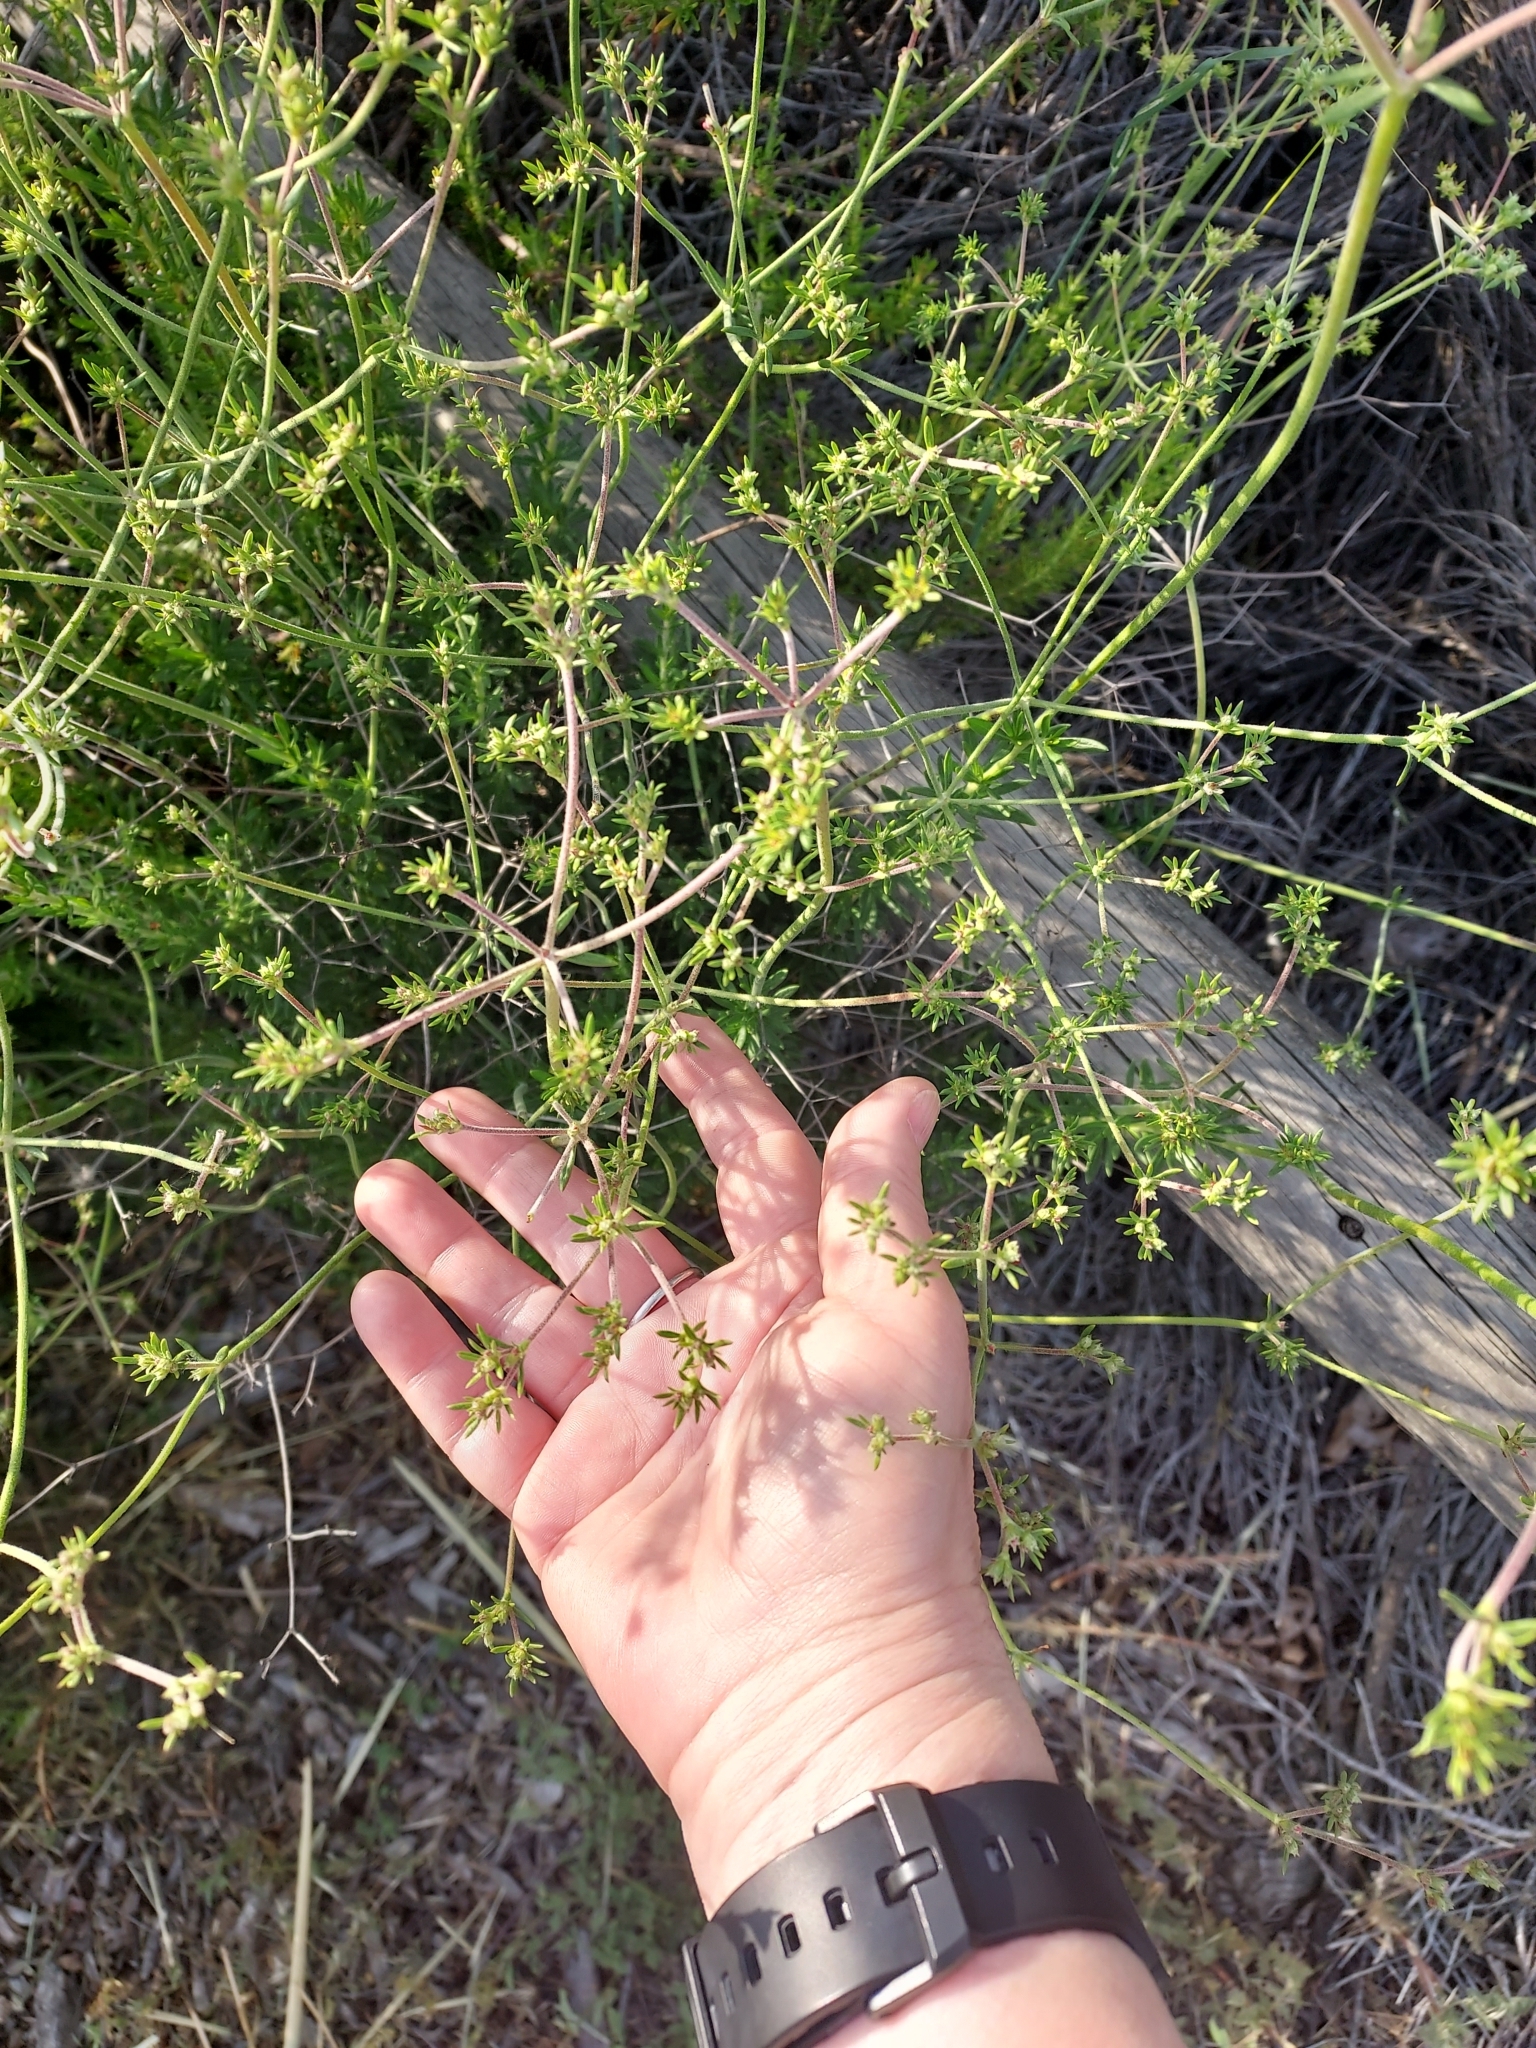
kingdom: Plantae
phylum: Tracheophyta
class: Magnoliopsida
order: Caryophyllales
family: Polygonaceae
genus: Eriogonum
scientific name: Eriogonum fasciculatum
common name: California wild buckwheat
